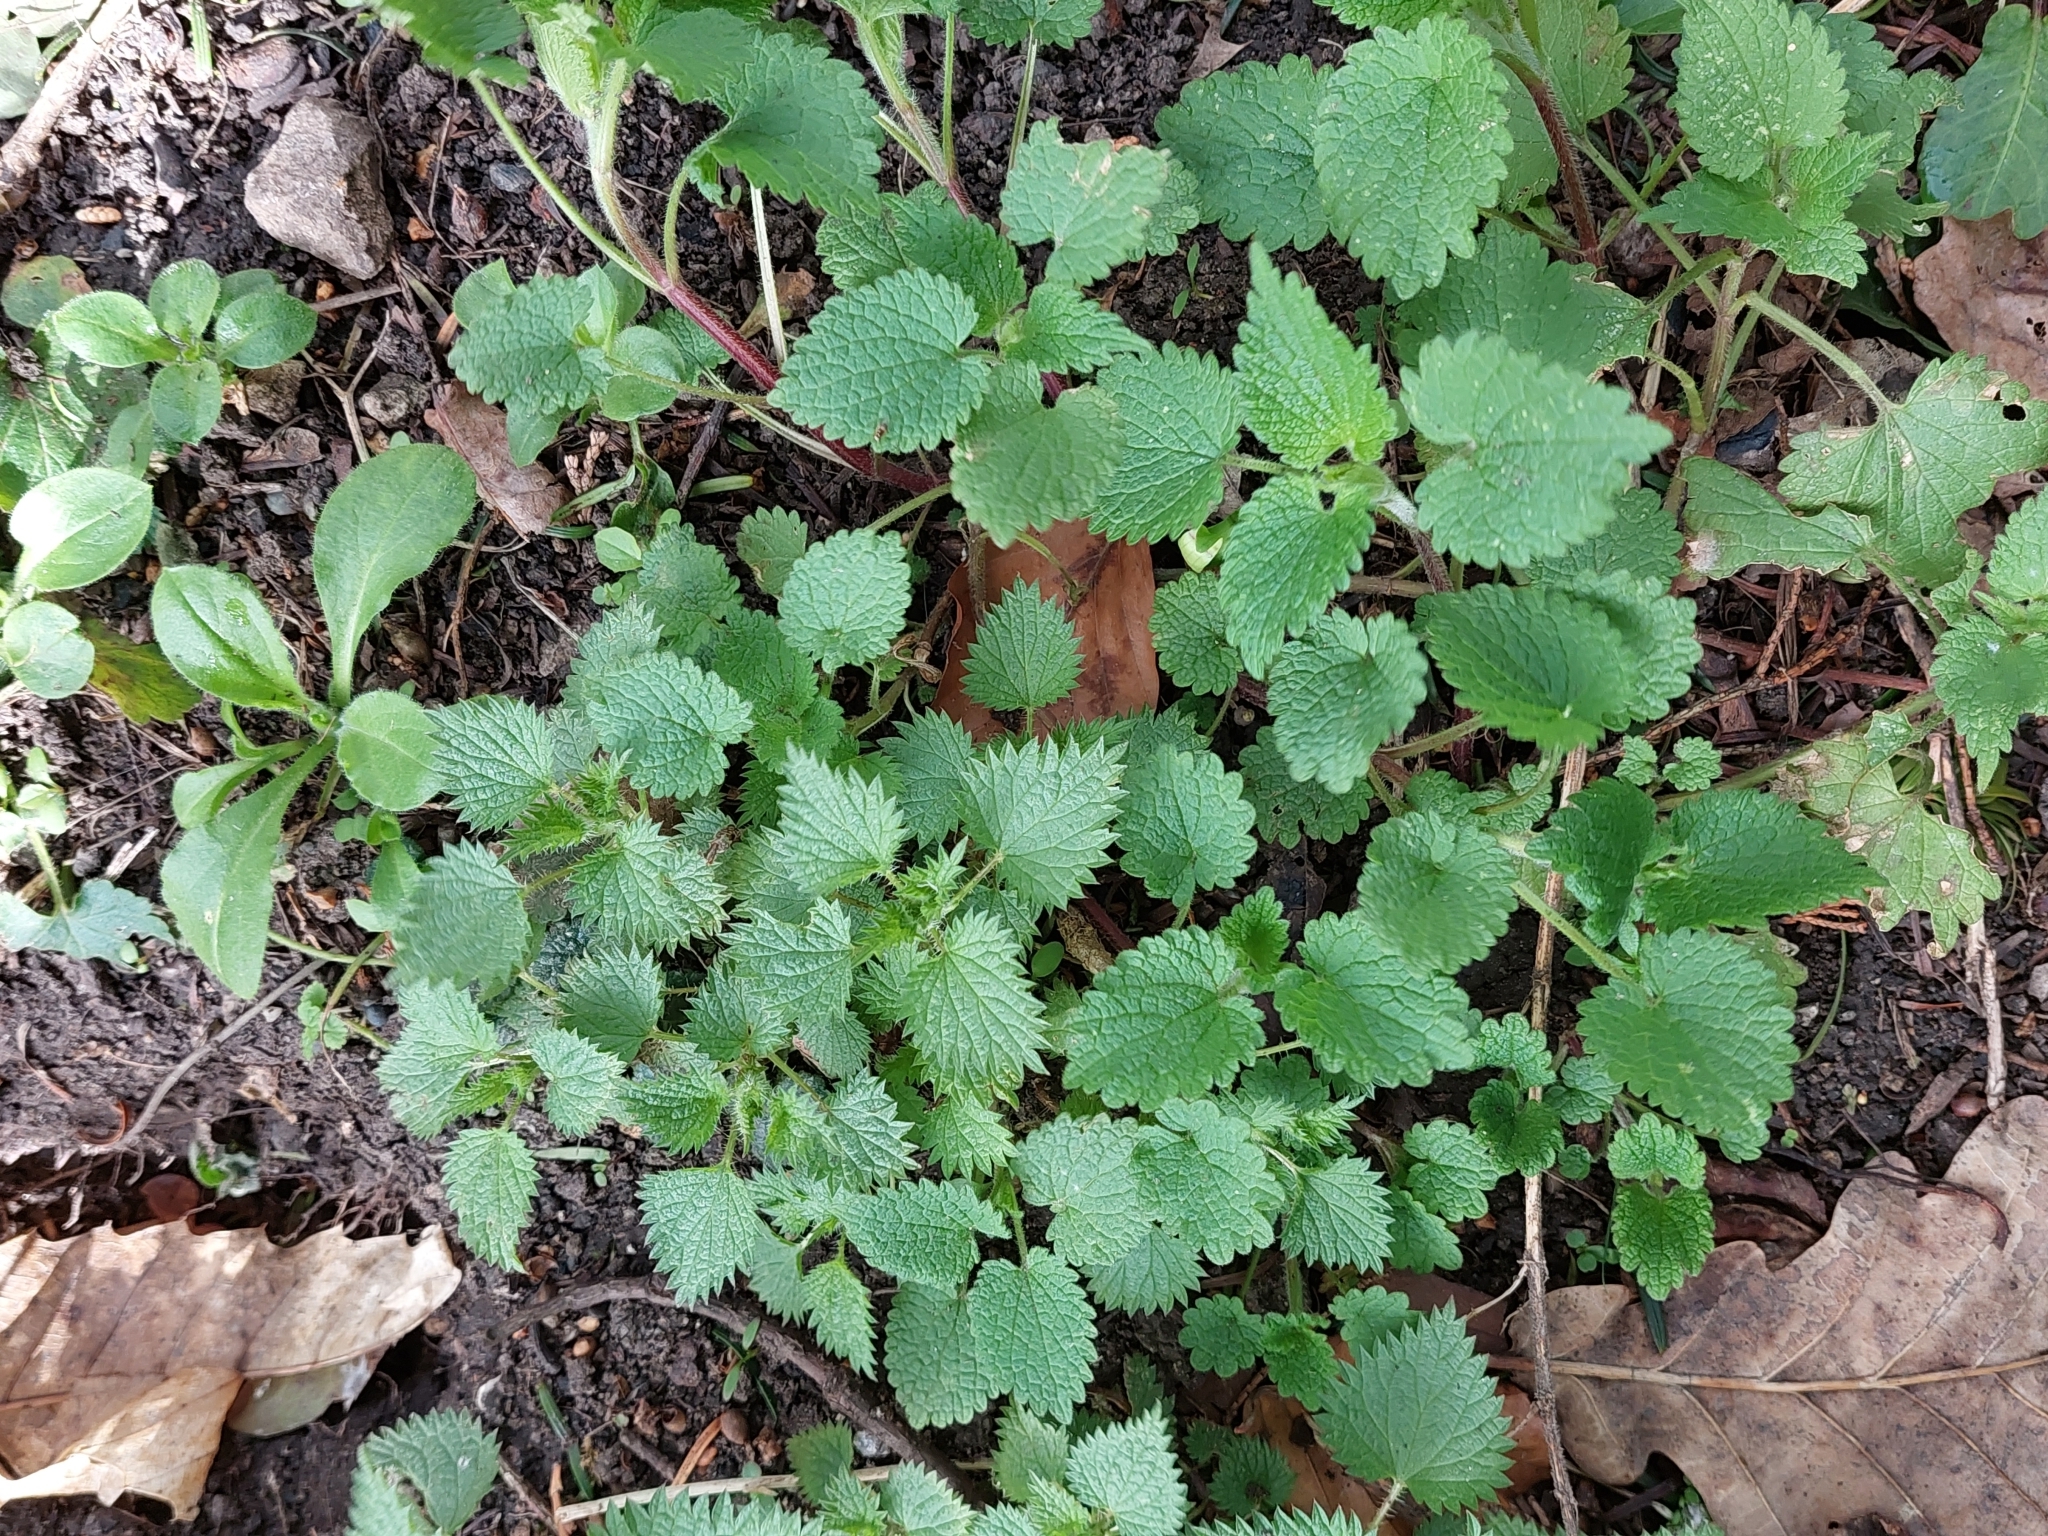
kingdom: Plantae
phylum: Tracheophyta
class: Magnoliopsida
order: Rosales
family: Urticaceae
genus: Urtica
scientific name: Urtica dioica
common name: Common nettle
